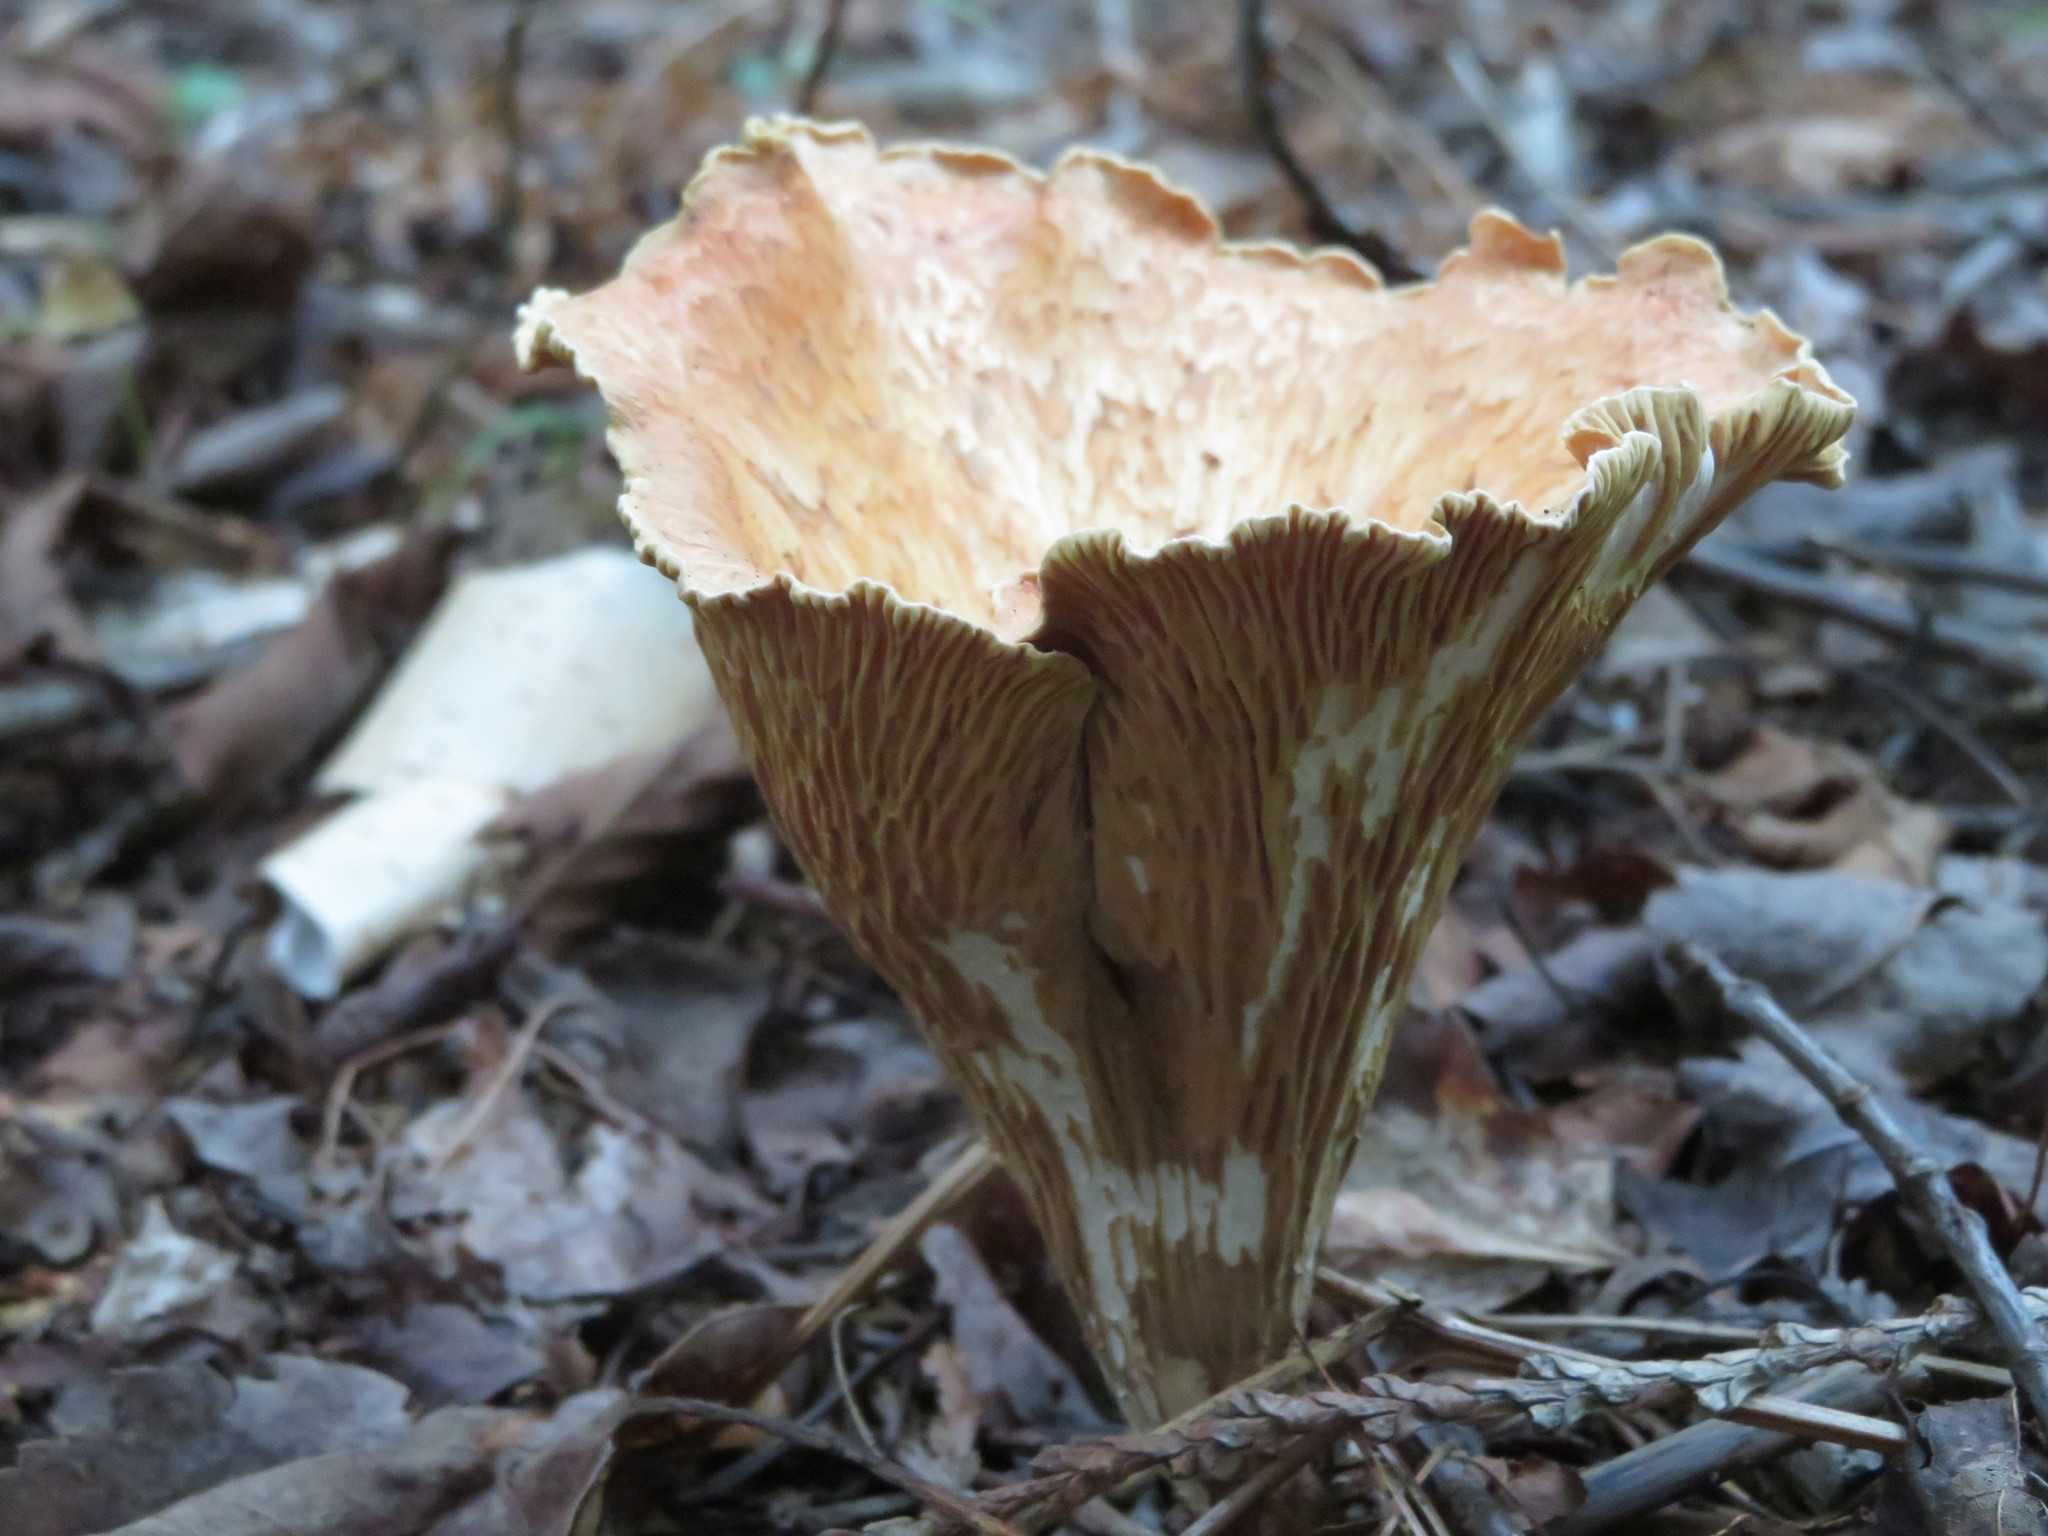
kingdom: Fungi
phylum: Basidiomycota
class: Agaricomycetes
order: Gomphales
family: Gomphaceae
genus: Gomphus
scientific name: Gomphus clavatus
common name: Pig's ear
